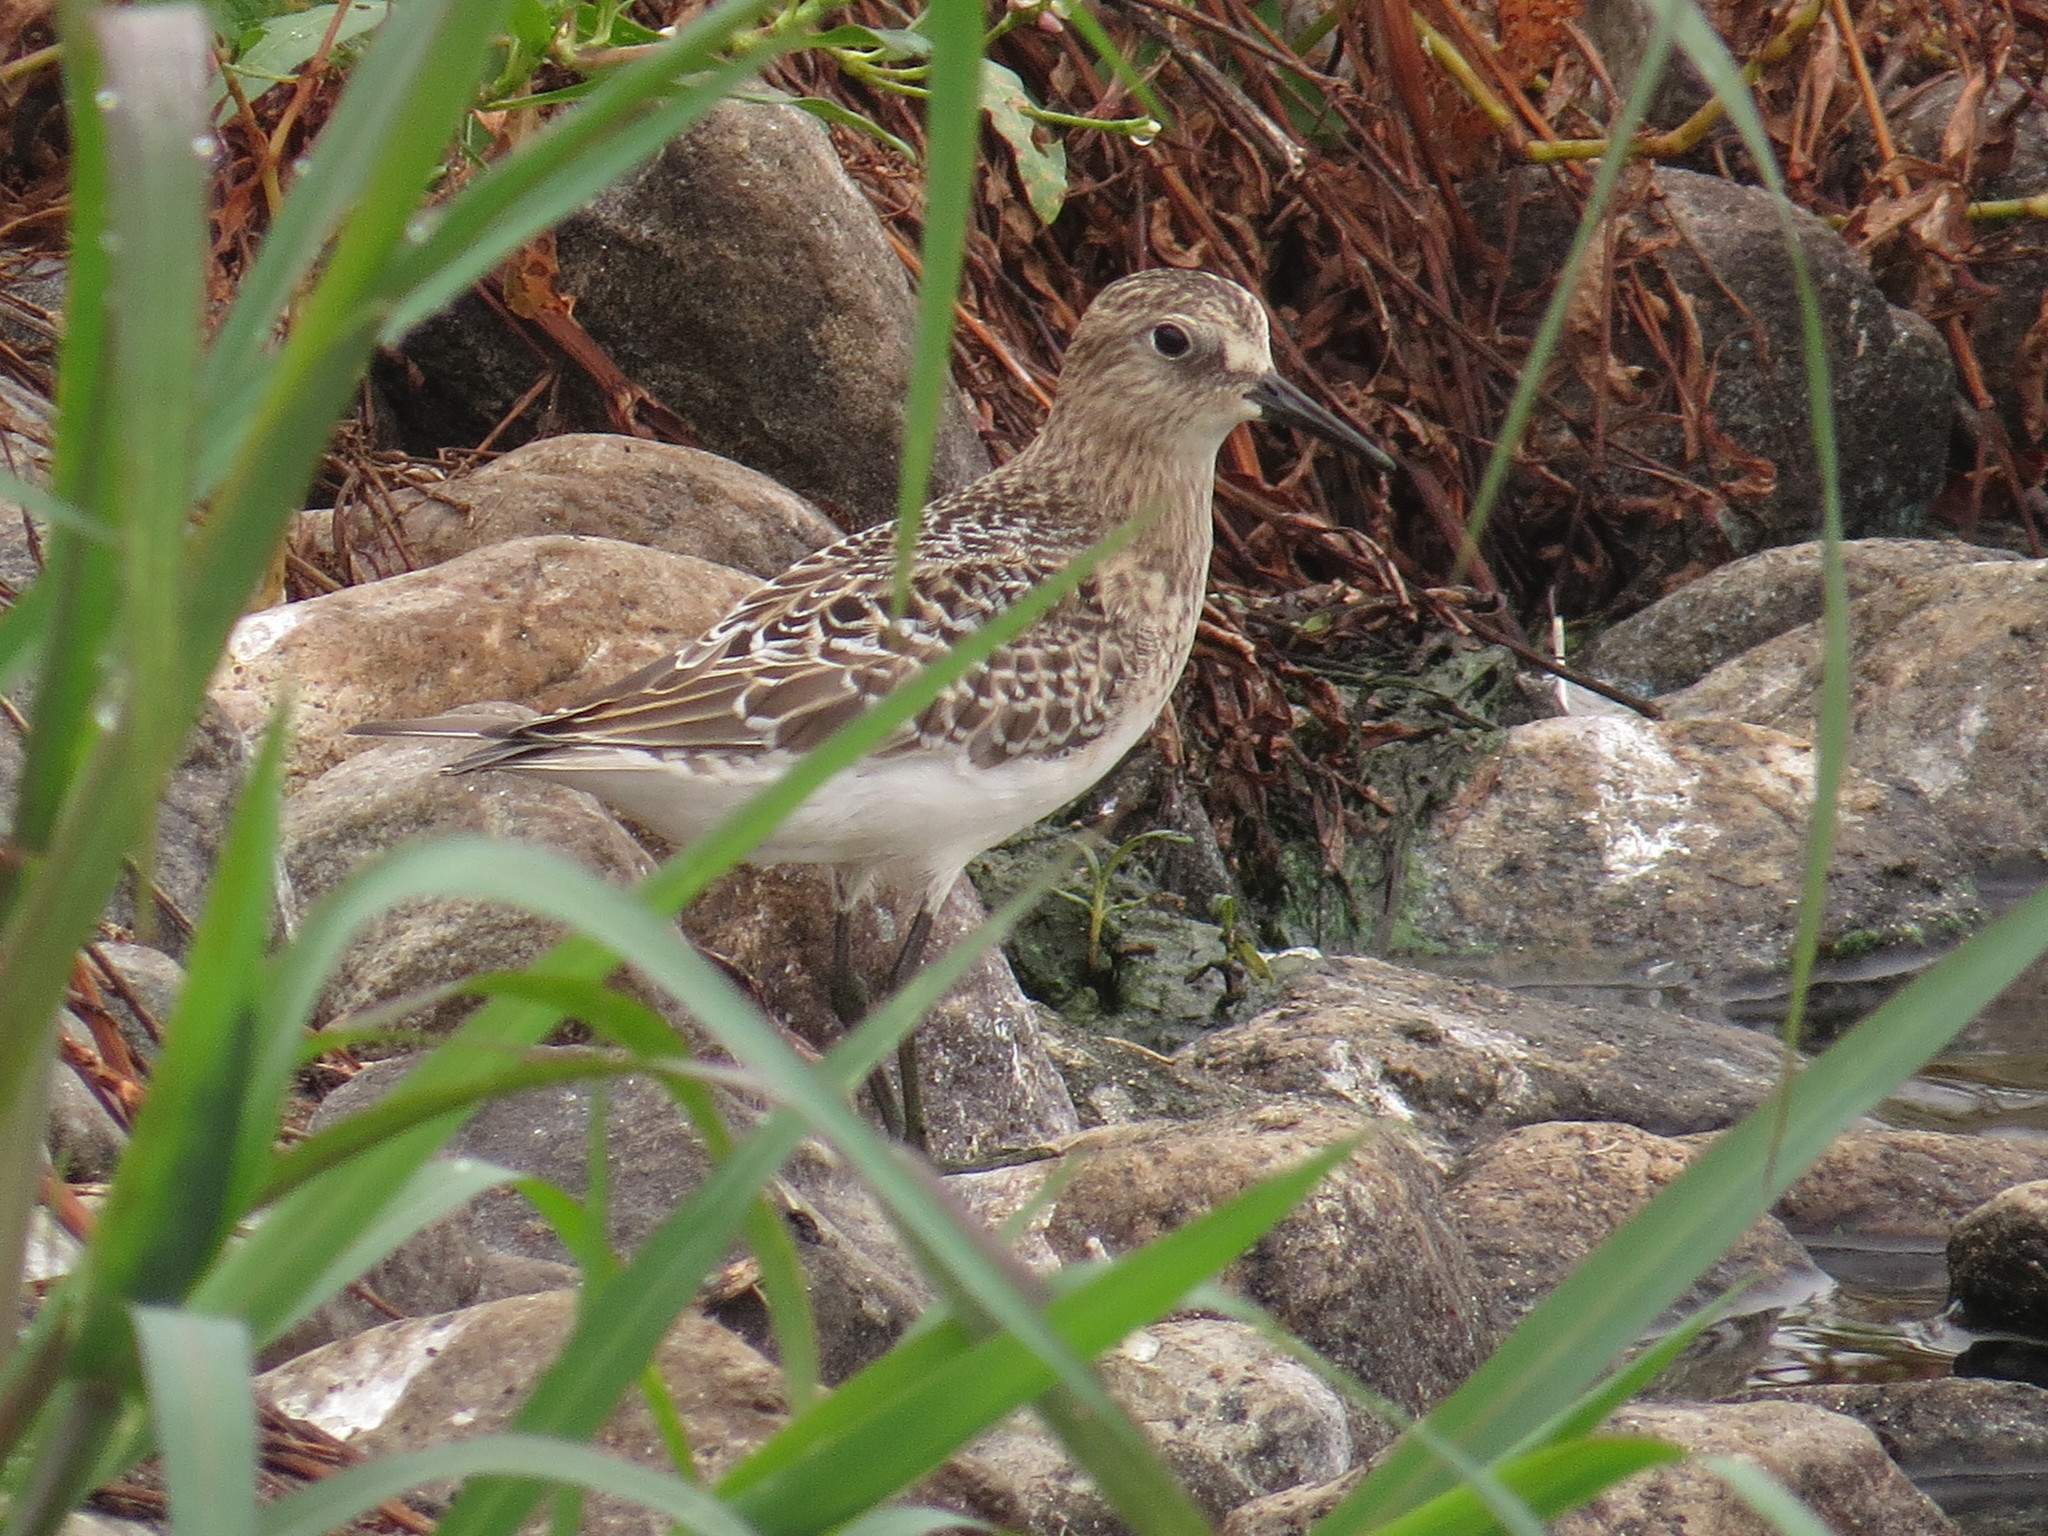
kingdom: Animalia
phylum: Chordata
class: Aves
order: Charadriiformes
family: Scolopacidae
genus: Calidris
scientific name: Calidris bairdii
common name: Baird's sandpiper
